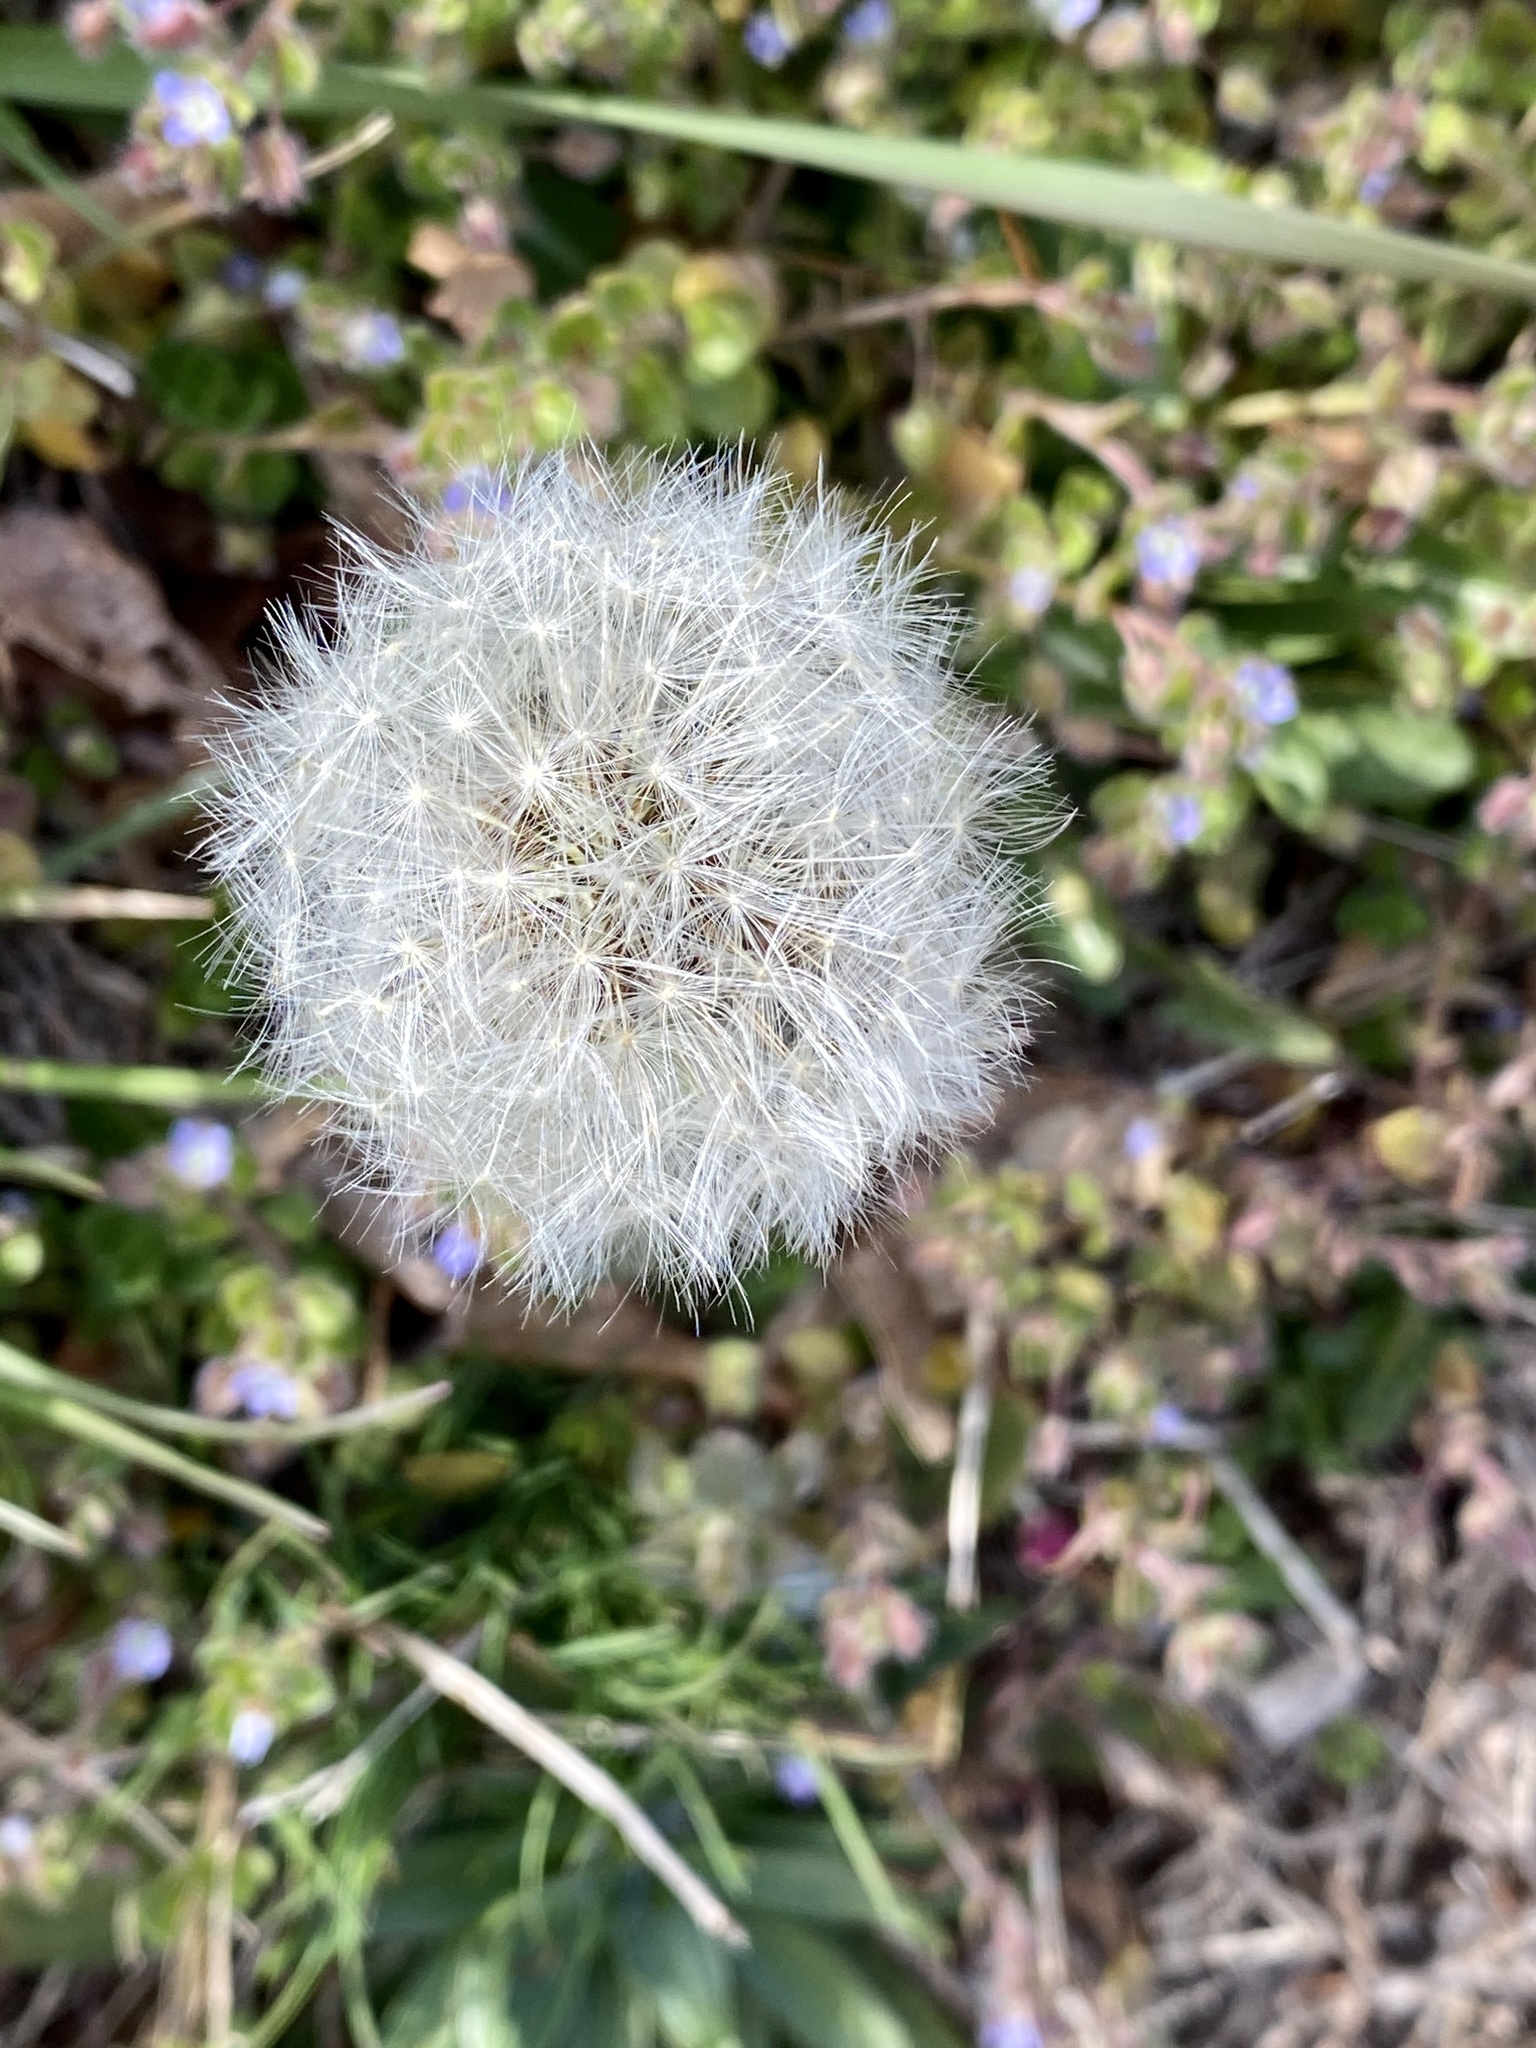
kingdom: Plantae
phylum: Tracheophyta
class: Magnoliopsida
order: Asterales
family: Asteraceae
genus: Taraxacum
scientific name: Taraxacum officinale
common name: Common dandelion
